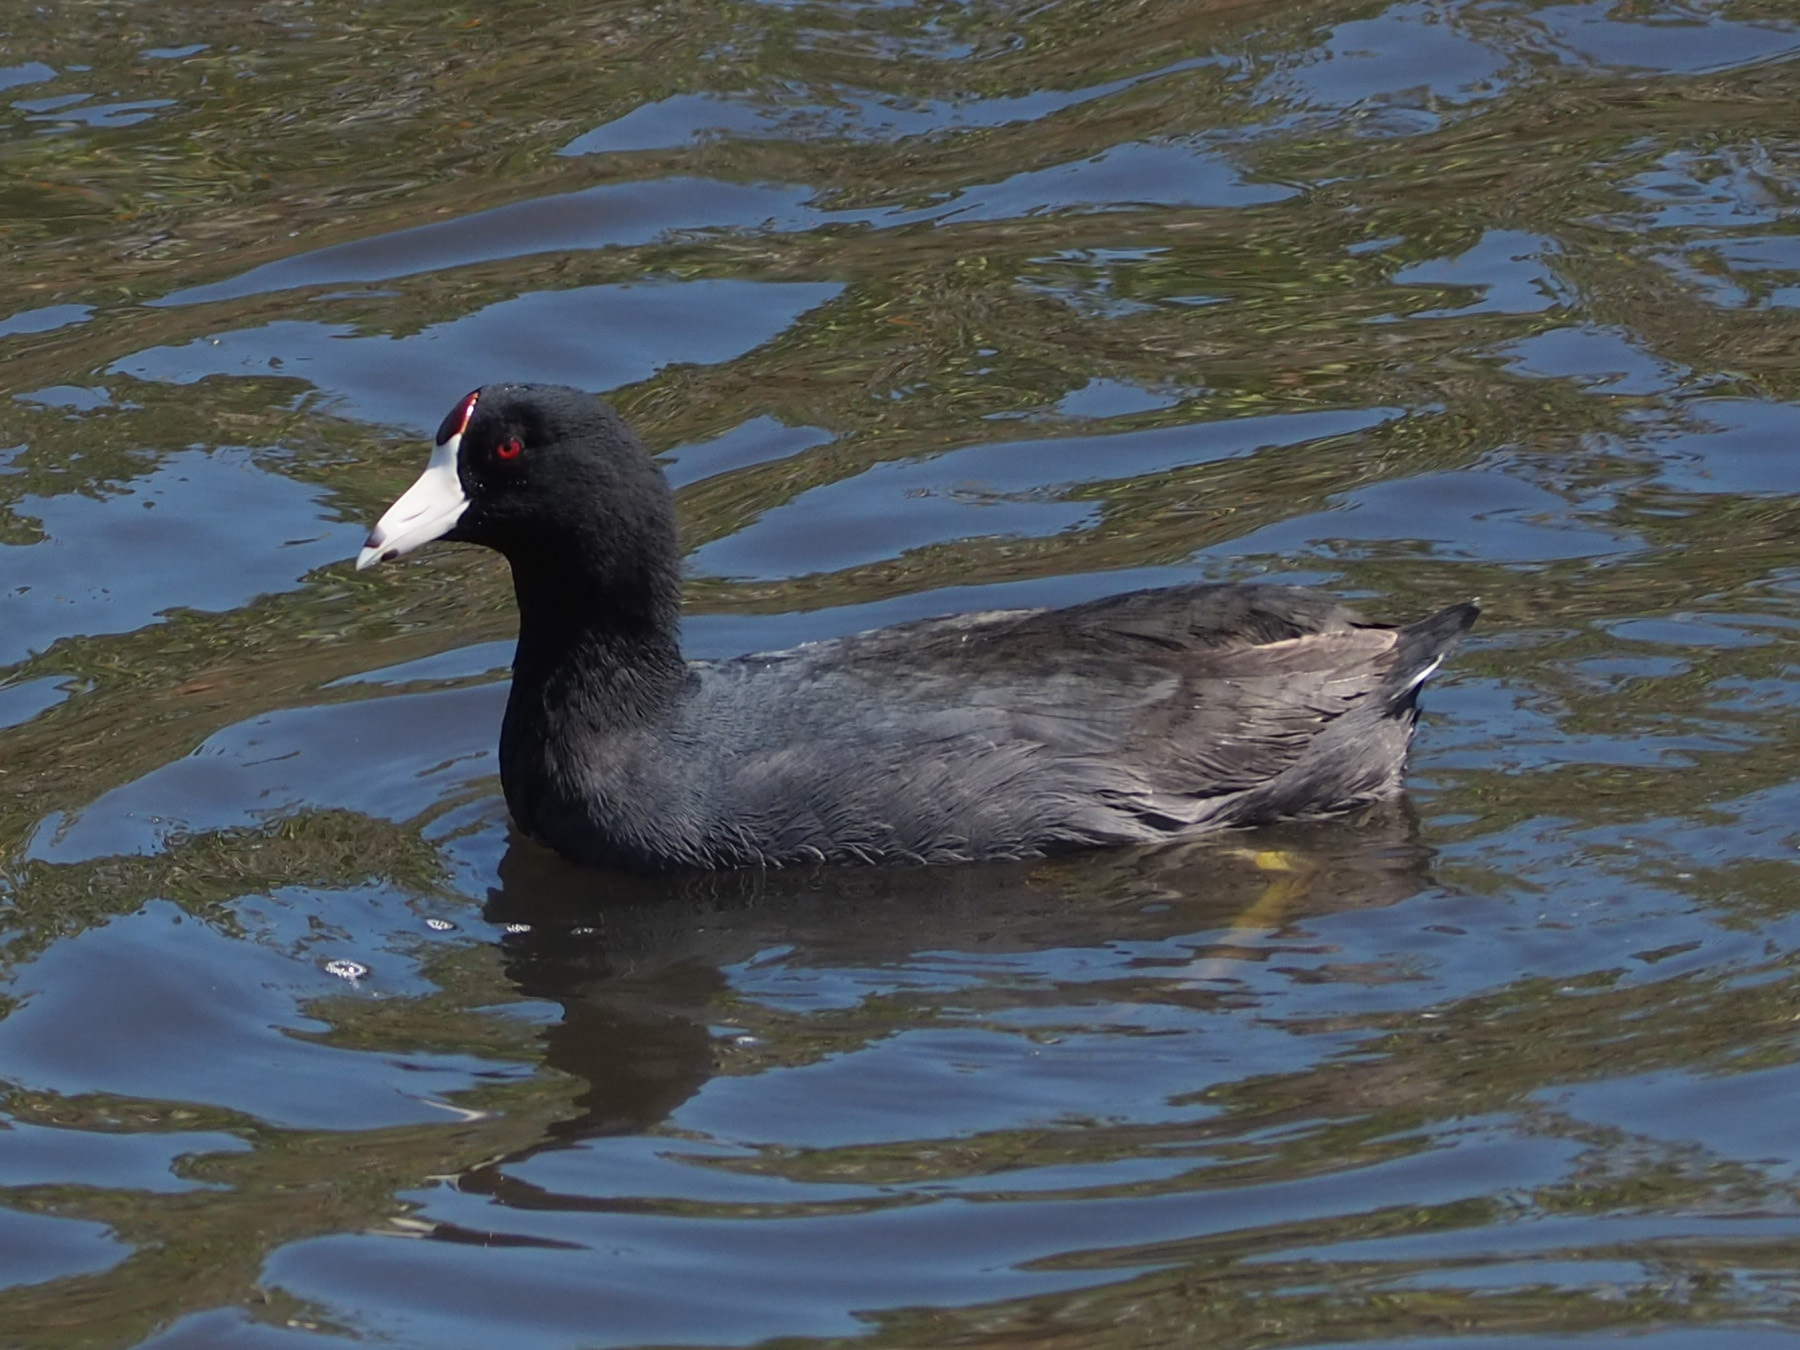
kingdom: Animalia
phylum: Chordata
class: Aves
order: Gruiformes
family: Rallidae
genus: Fulica
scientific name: Fulica americana
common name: American coot
